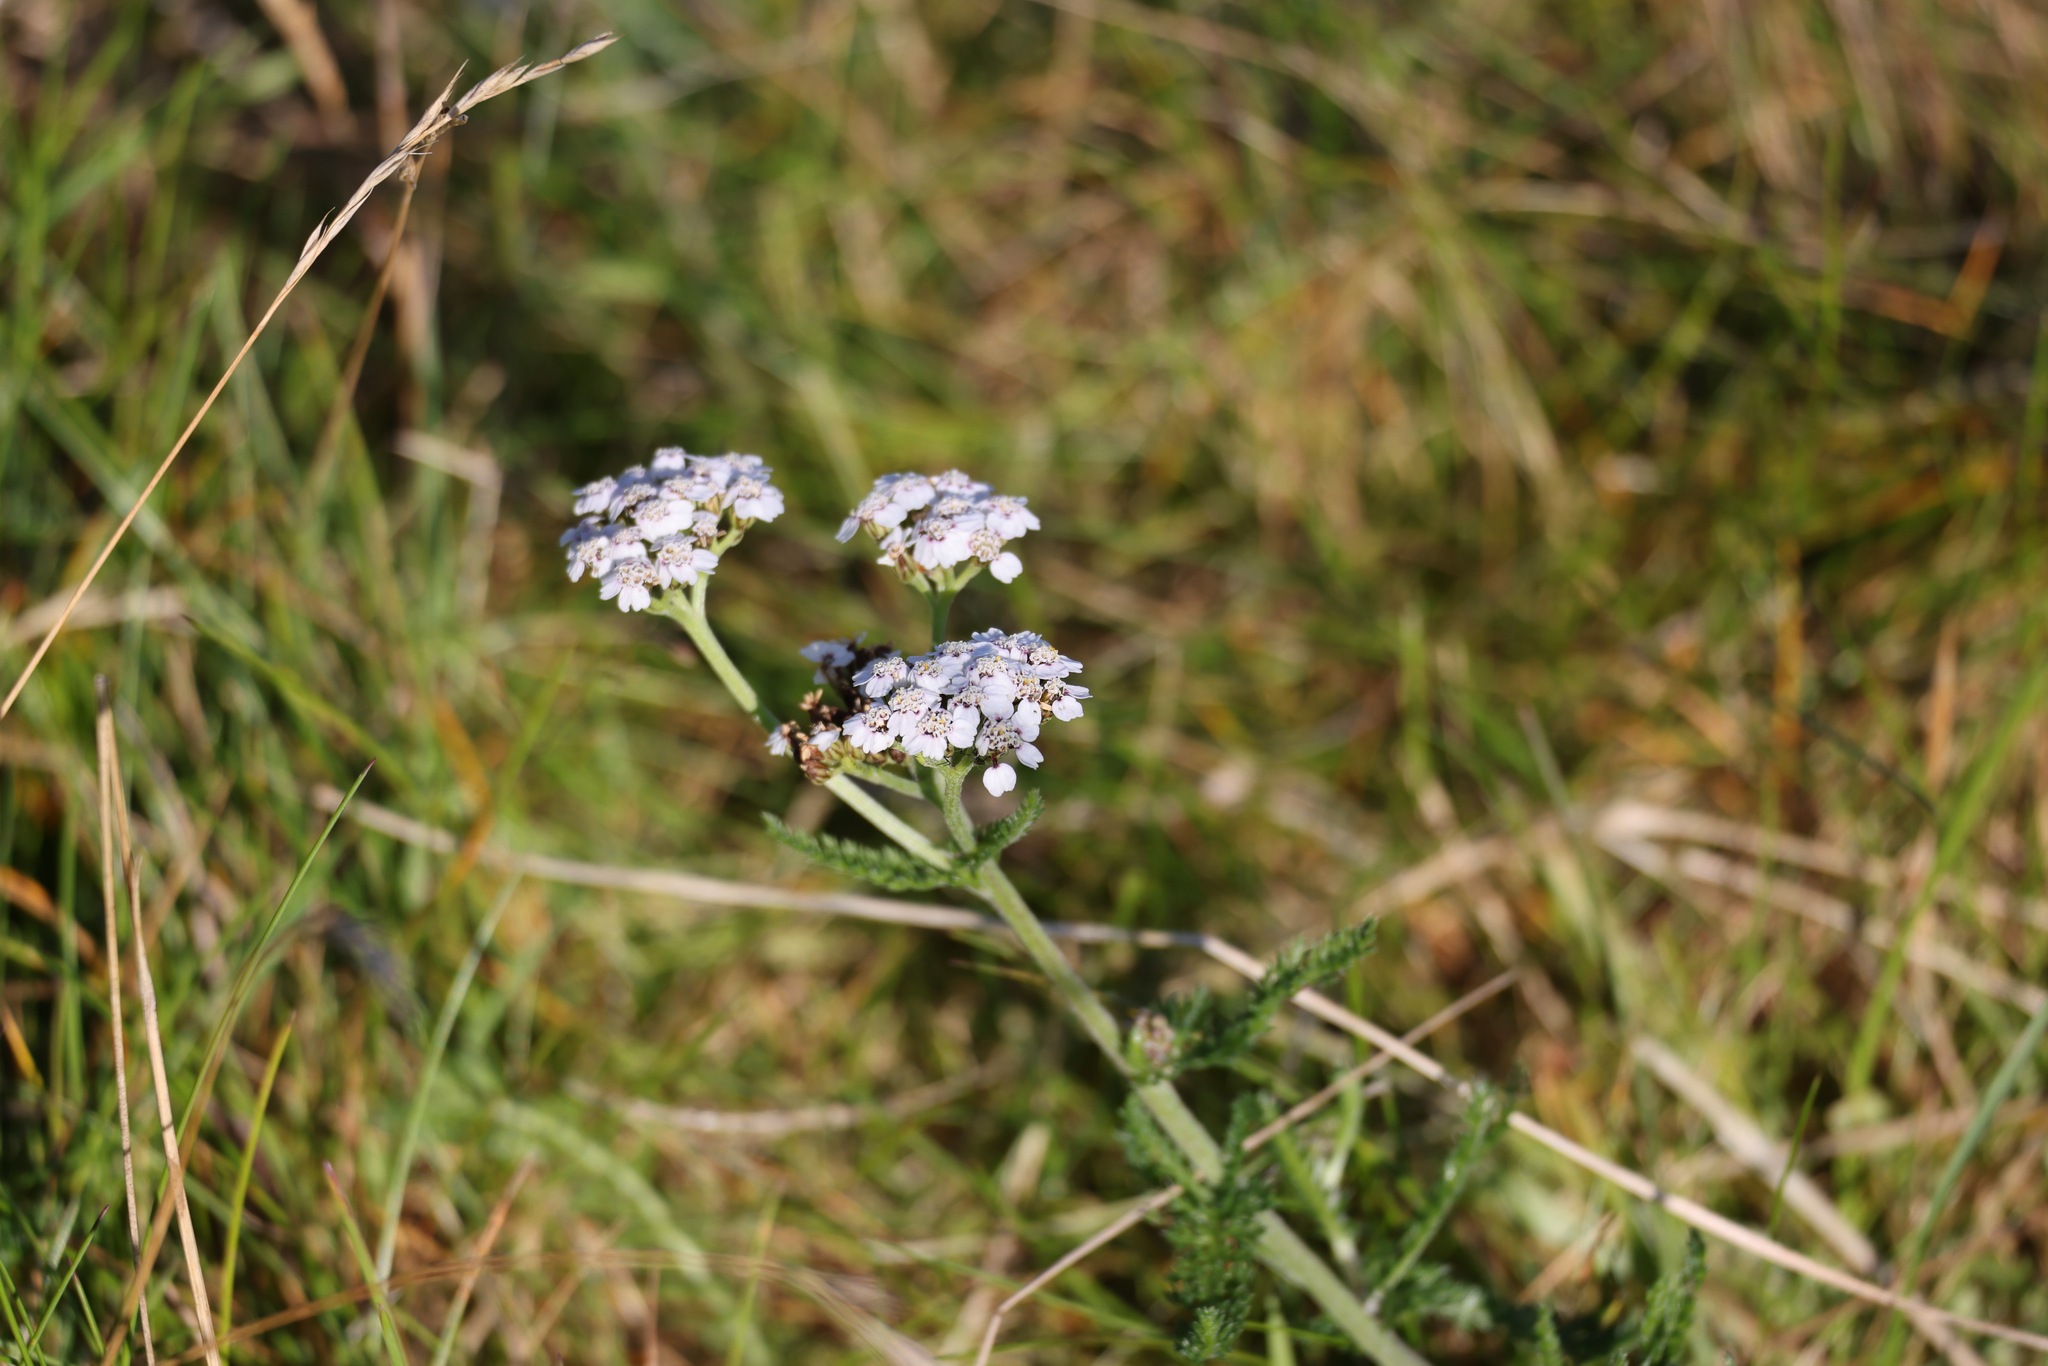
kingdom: Plantae
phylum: Tracheophyta
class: Magnoliopsida
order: Asterales
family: Asteraceae
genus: Achillea
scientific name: Achillea millefolium
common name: Yarrow
